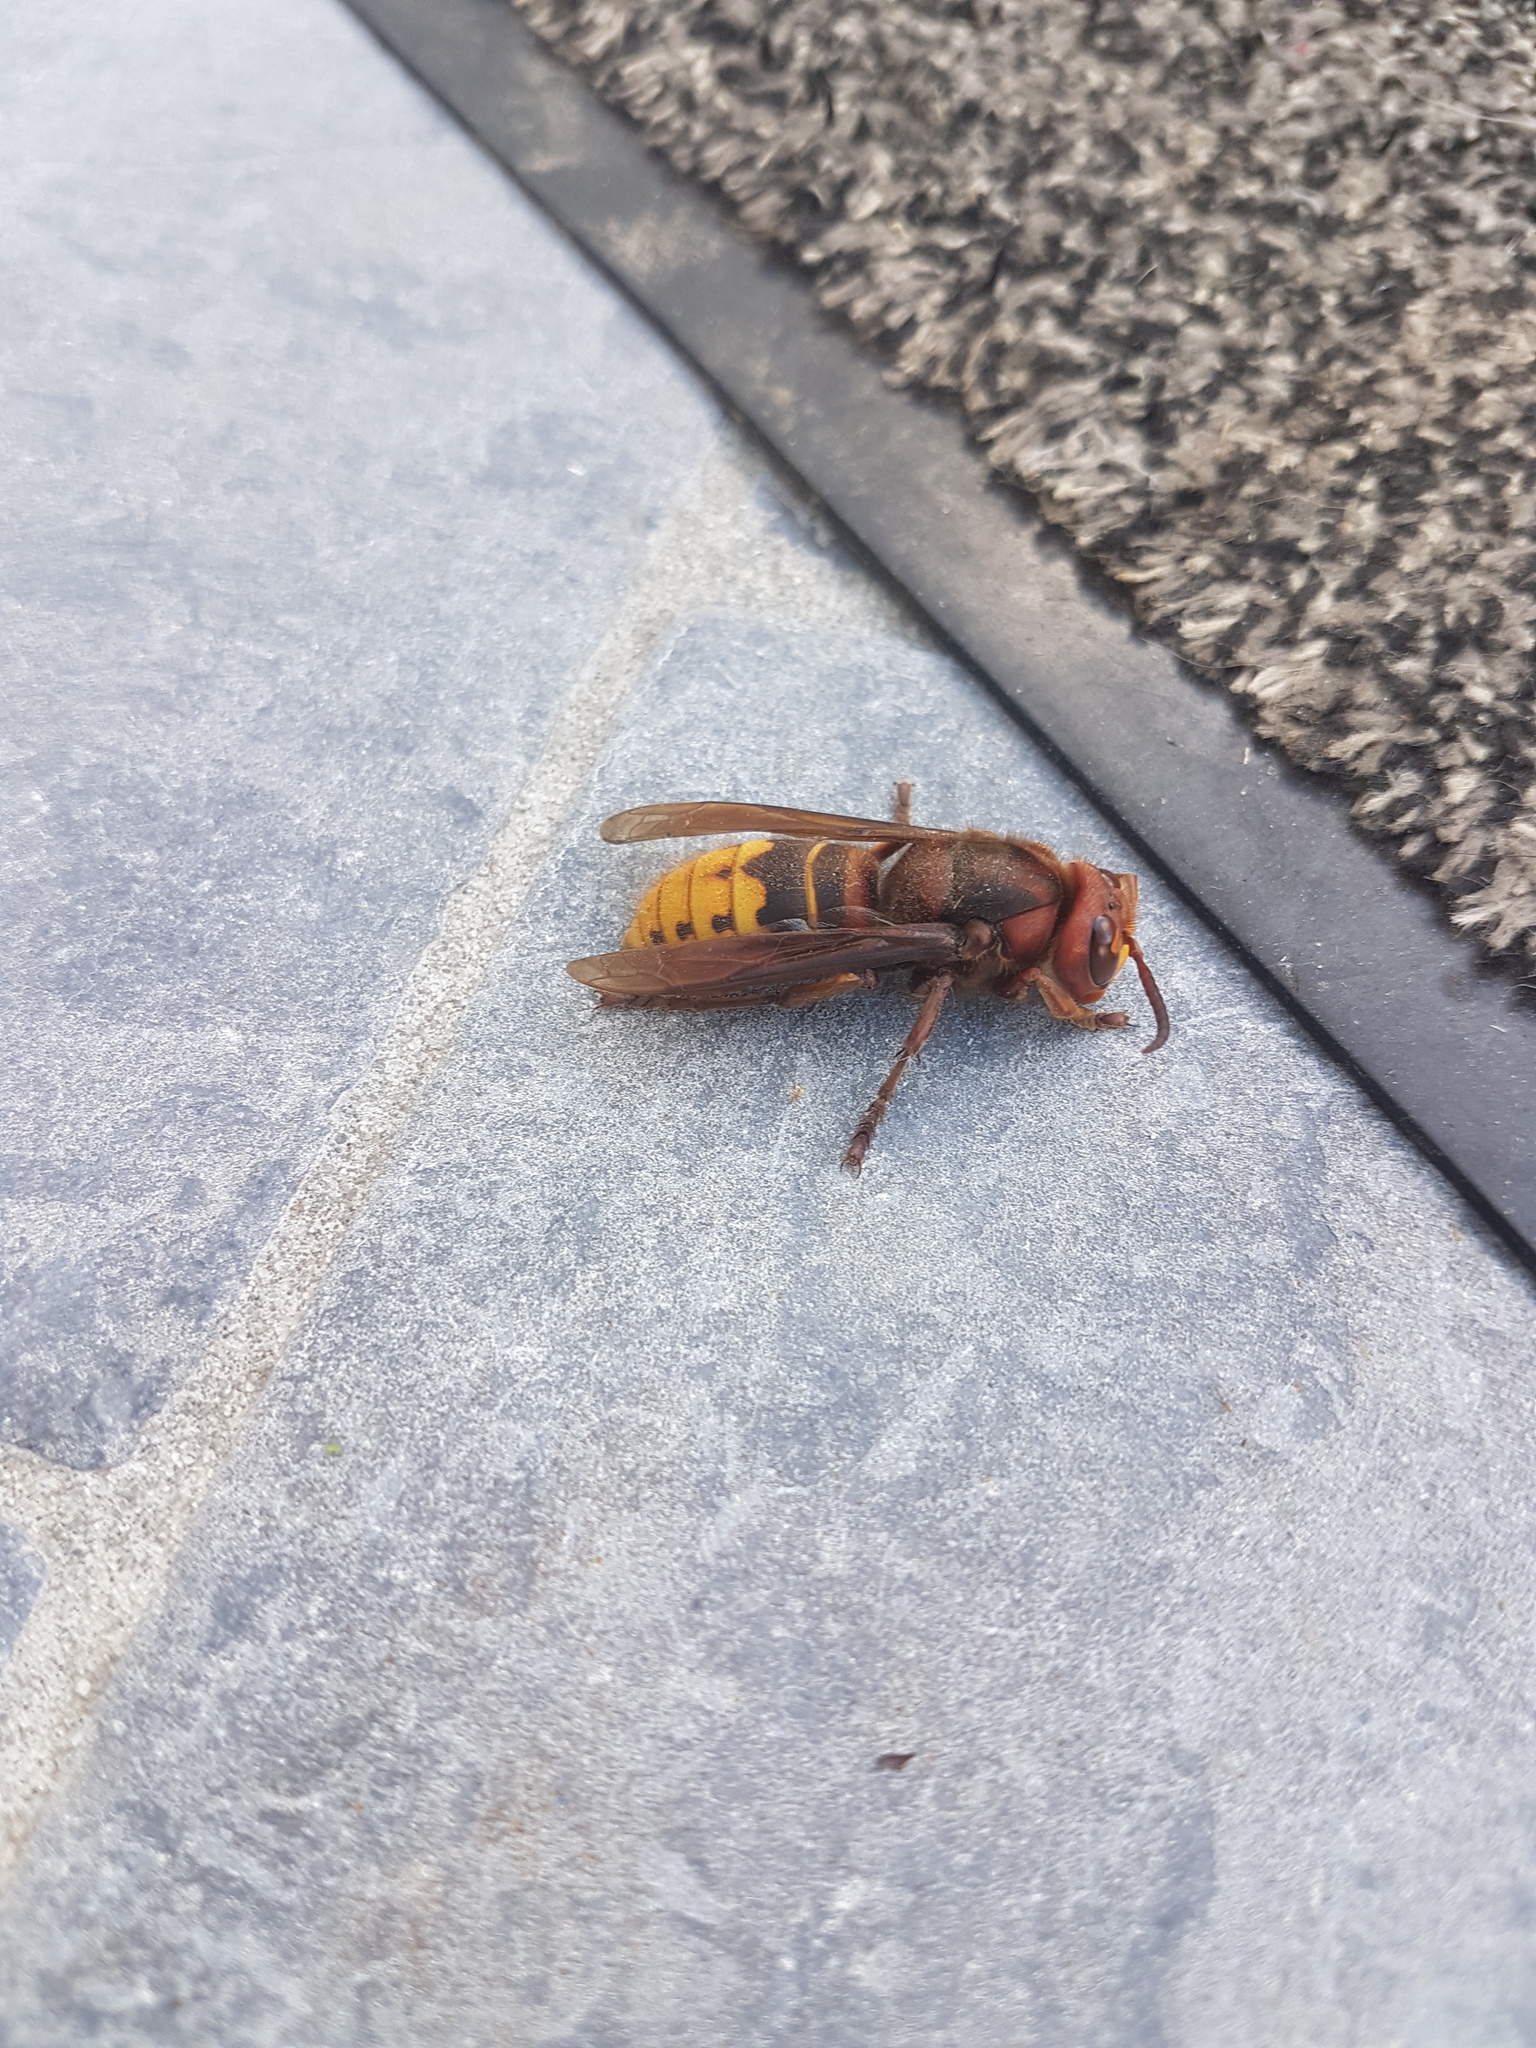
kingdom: Animalia
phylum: Arthropoda
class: Insecta
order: Hymenoptera
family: Vespidae
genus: Vespa
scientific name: Vespa crabro
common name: Hornet
